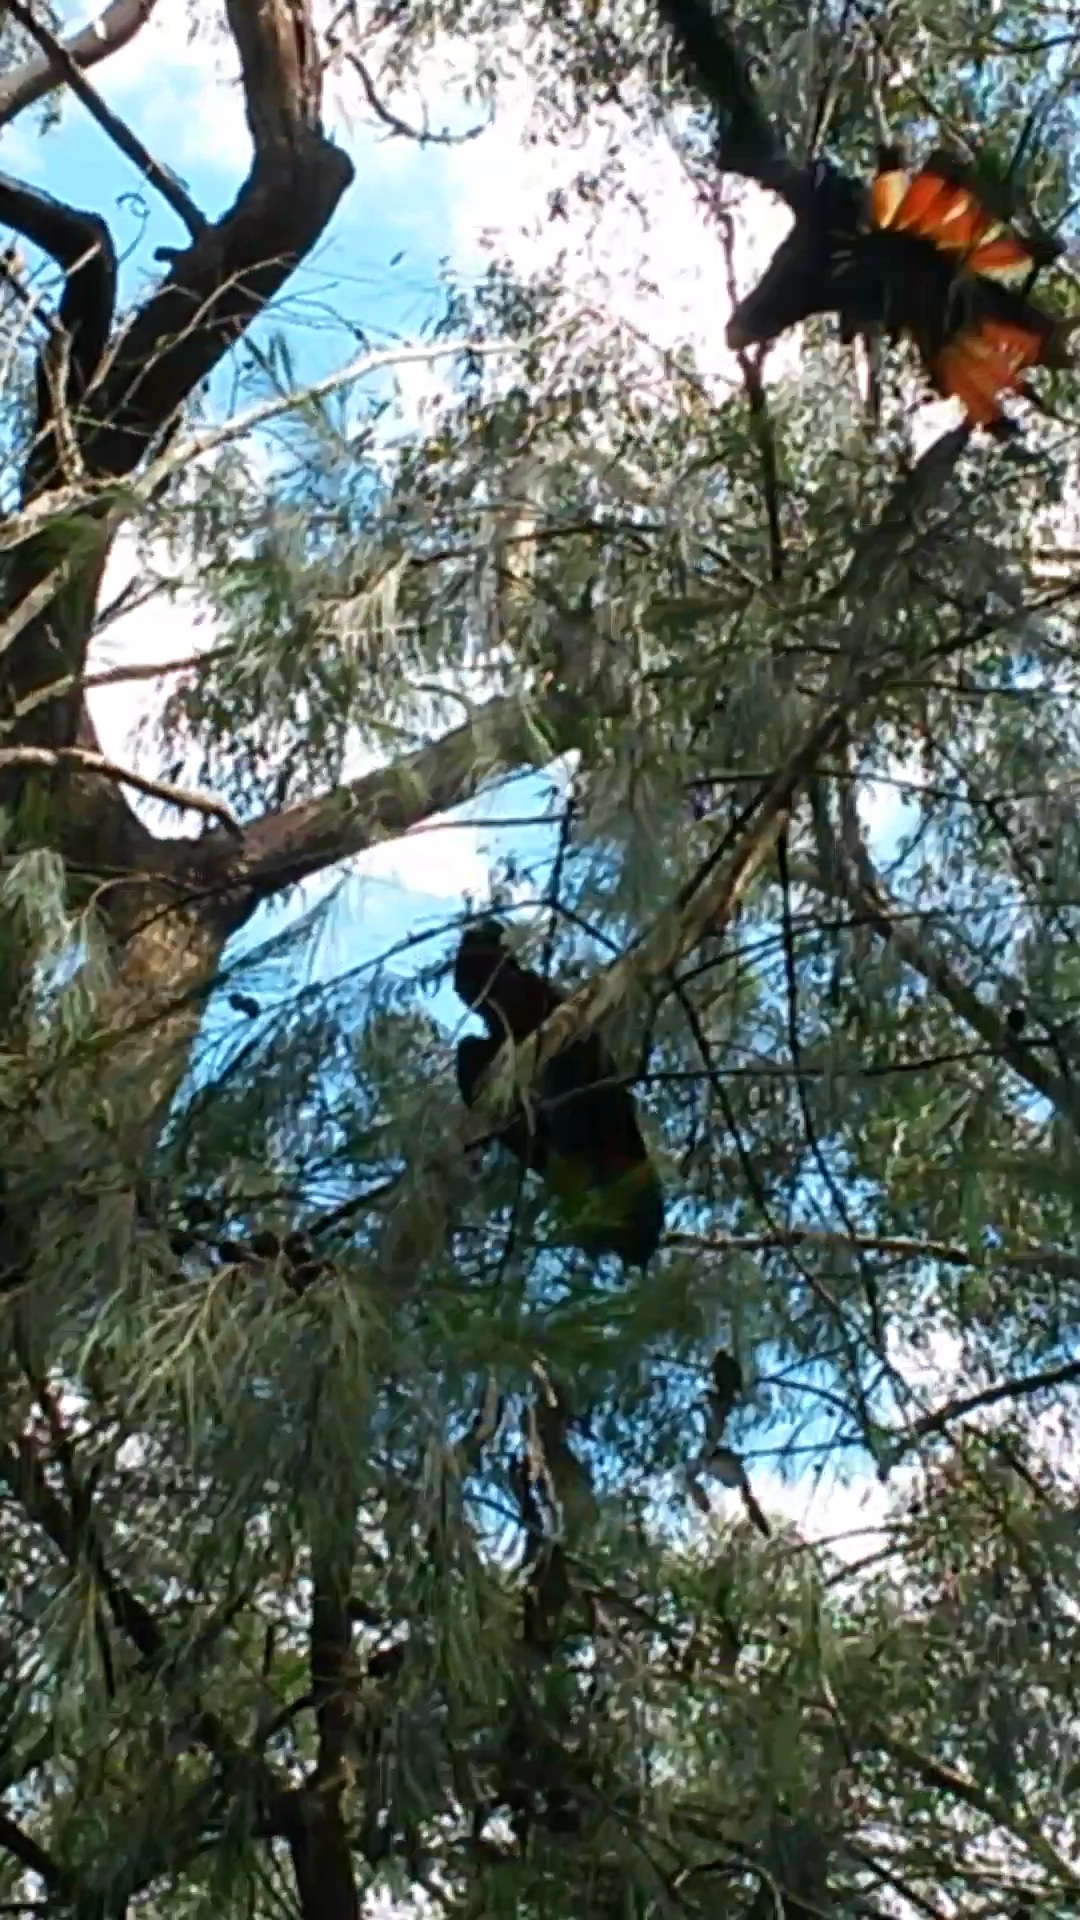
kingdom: Animalia
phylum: Chordata
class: Aves
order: Psittaciformes
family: Psittacidae
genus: Calyptorhynchus
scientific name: Calyptorhynchus lathami
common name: Glossy black cockatoo
